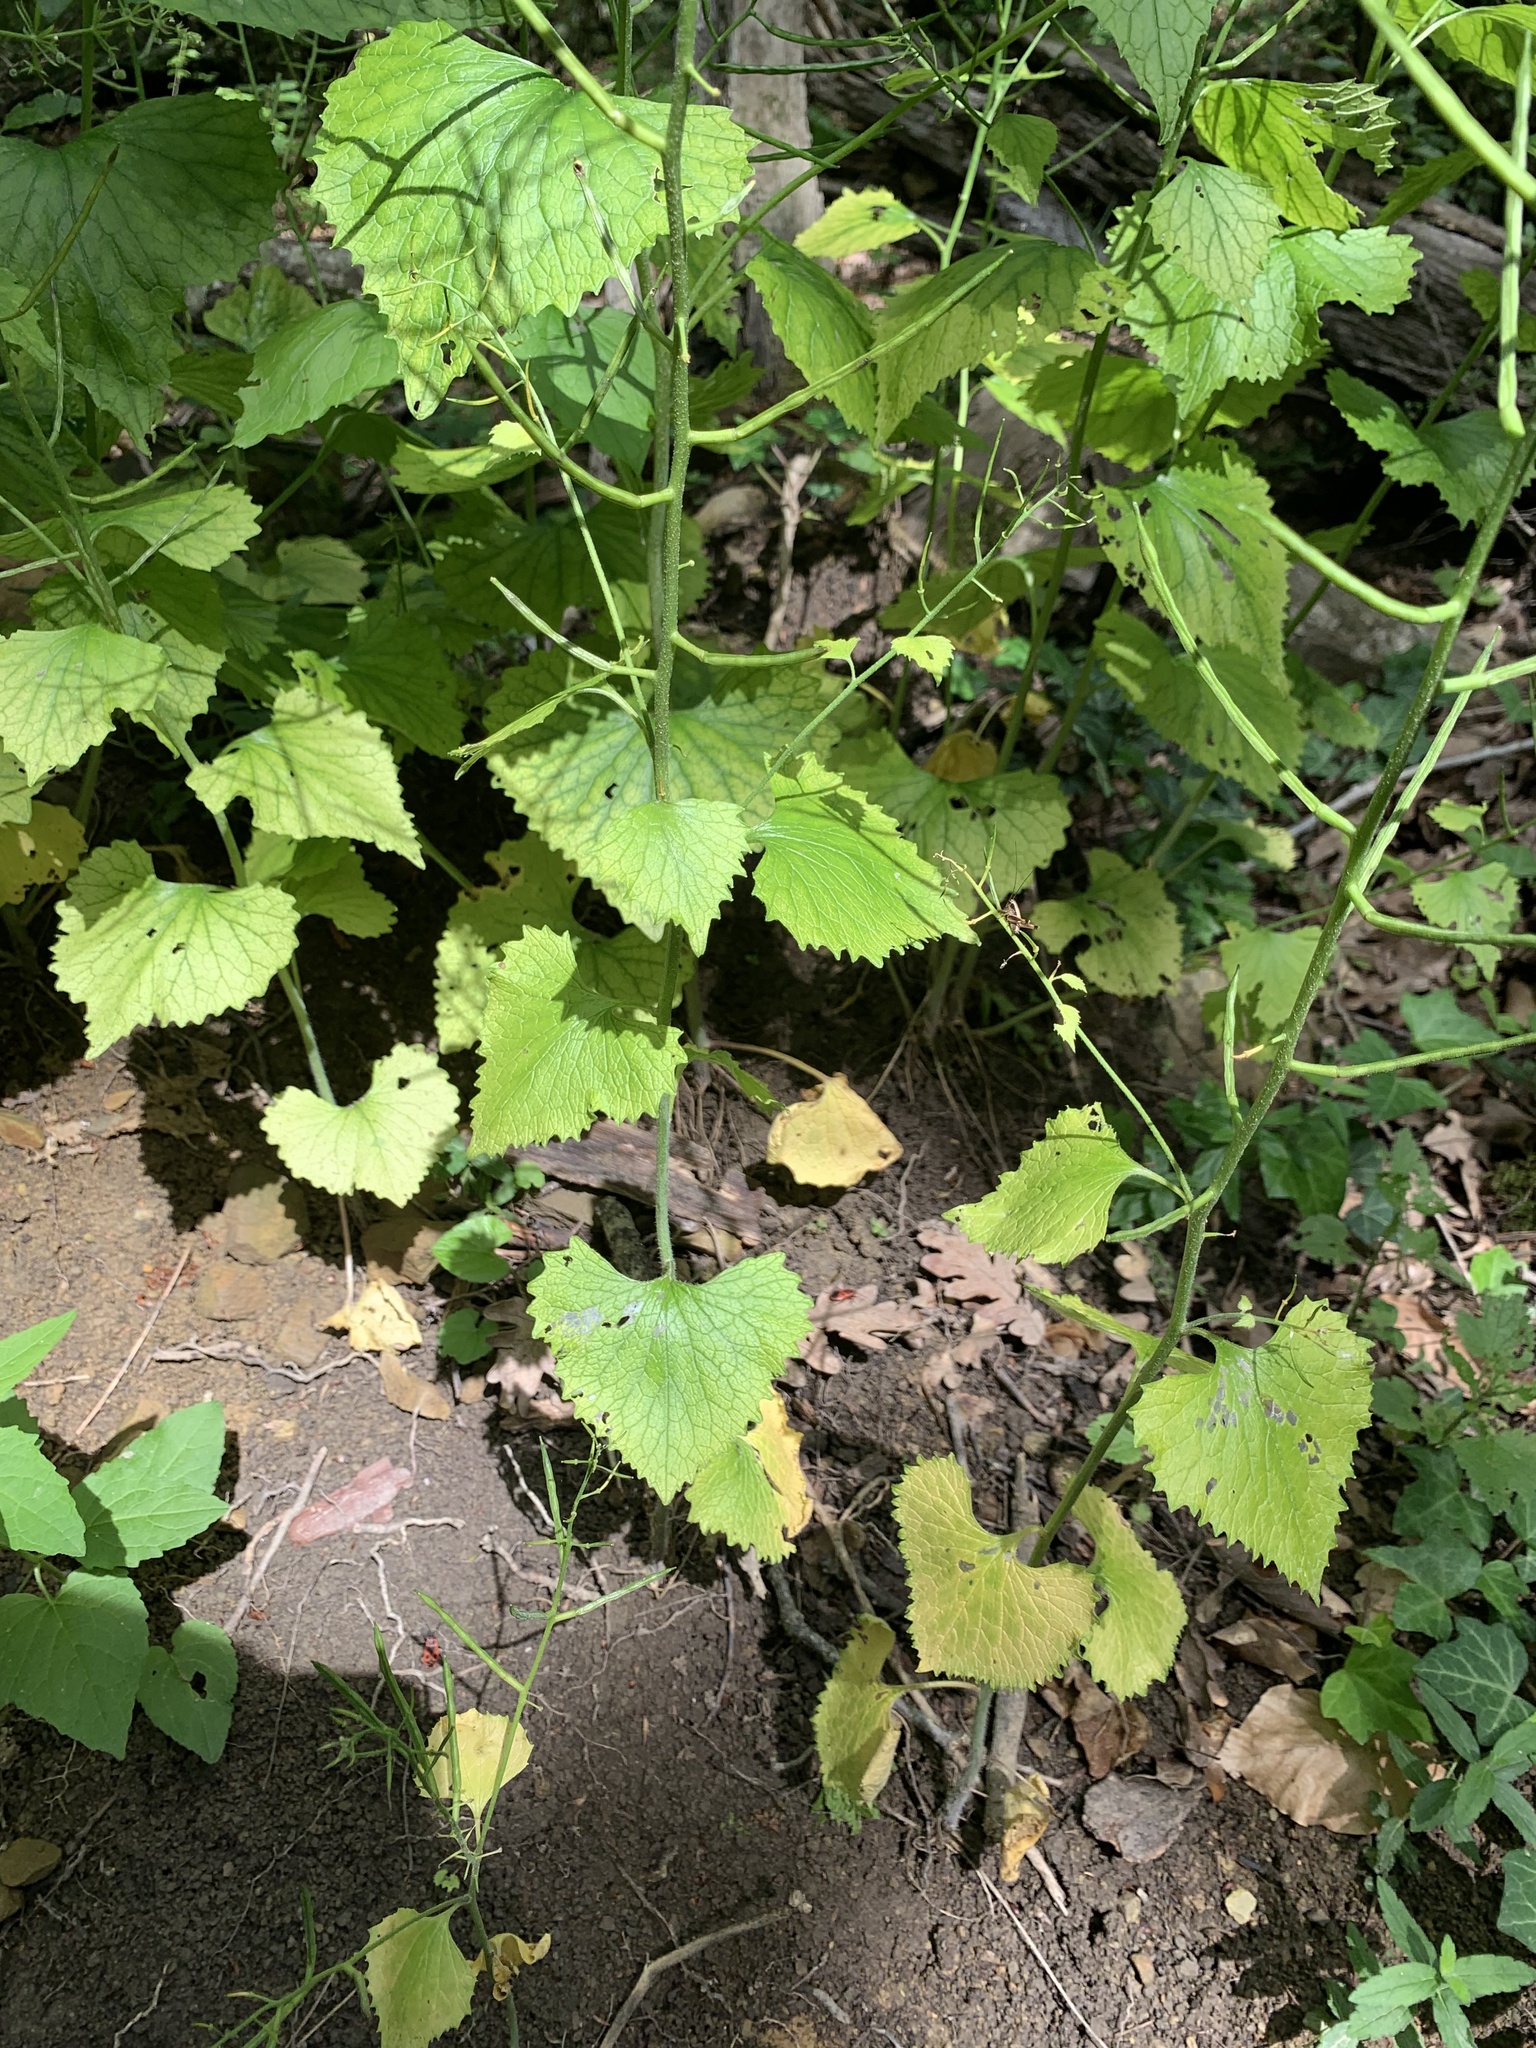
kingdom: Plantae
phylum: Tracheophyta
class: Magnoliopsida
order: Brassicales
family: Brassicaceae
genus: Alliaria
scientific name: Alliaria petiolata
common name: Garlic mustard
